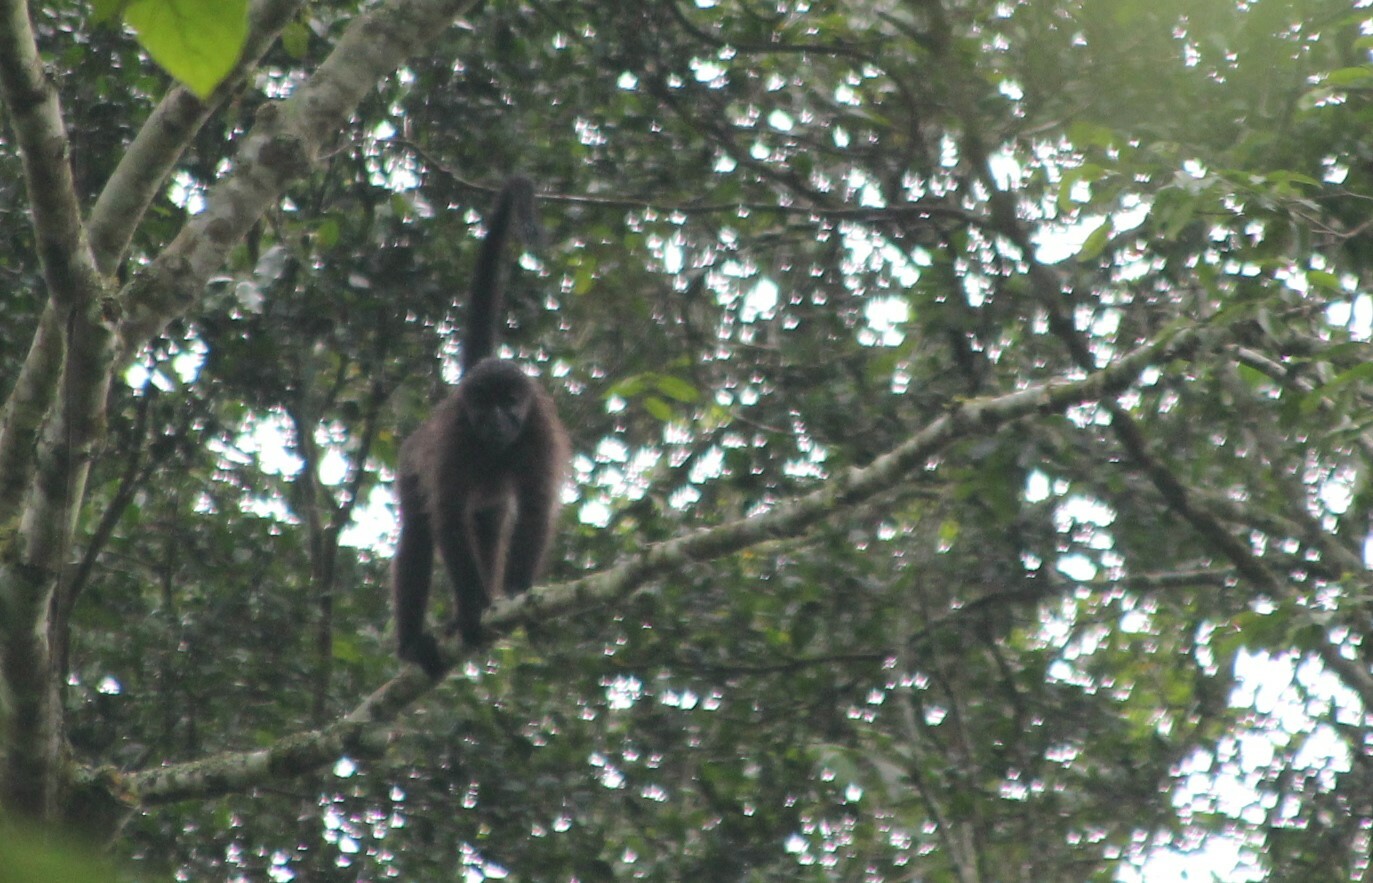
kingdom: Animalia
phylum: Chordata
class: Mammalia
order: Primates
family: Cercopithecidae
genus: Lophocebus
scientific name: Lophocebus albigena
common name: Gray-cheeked mangabey
